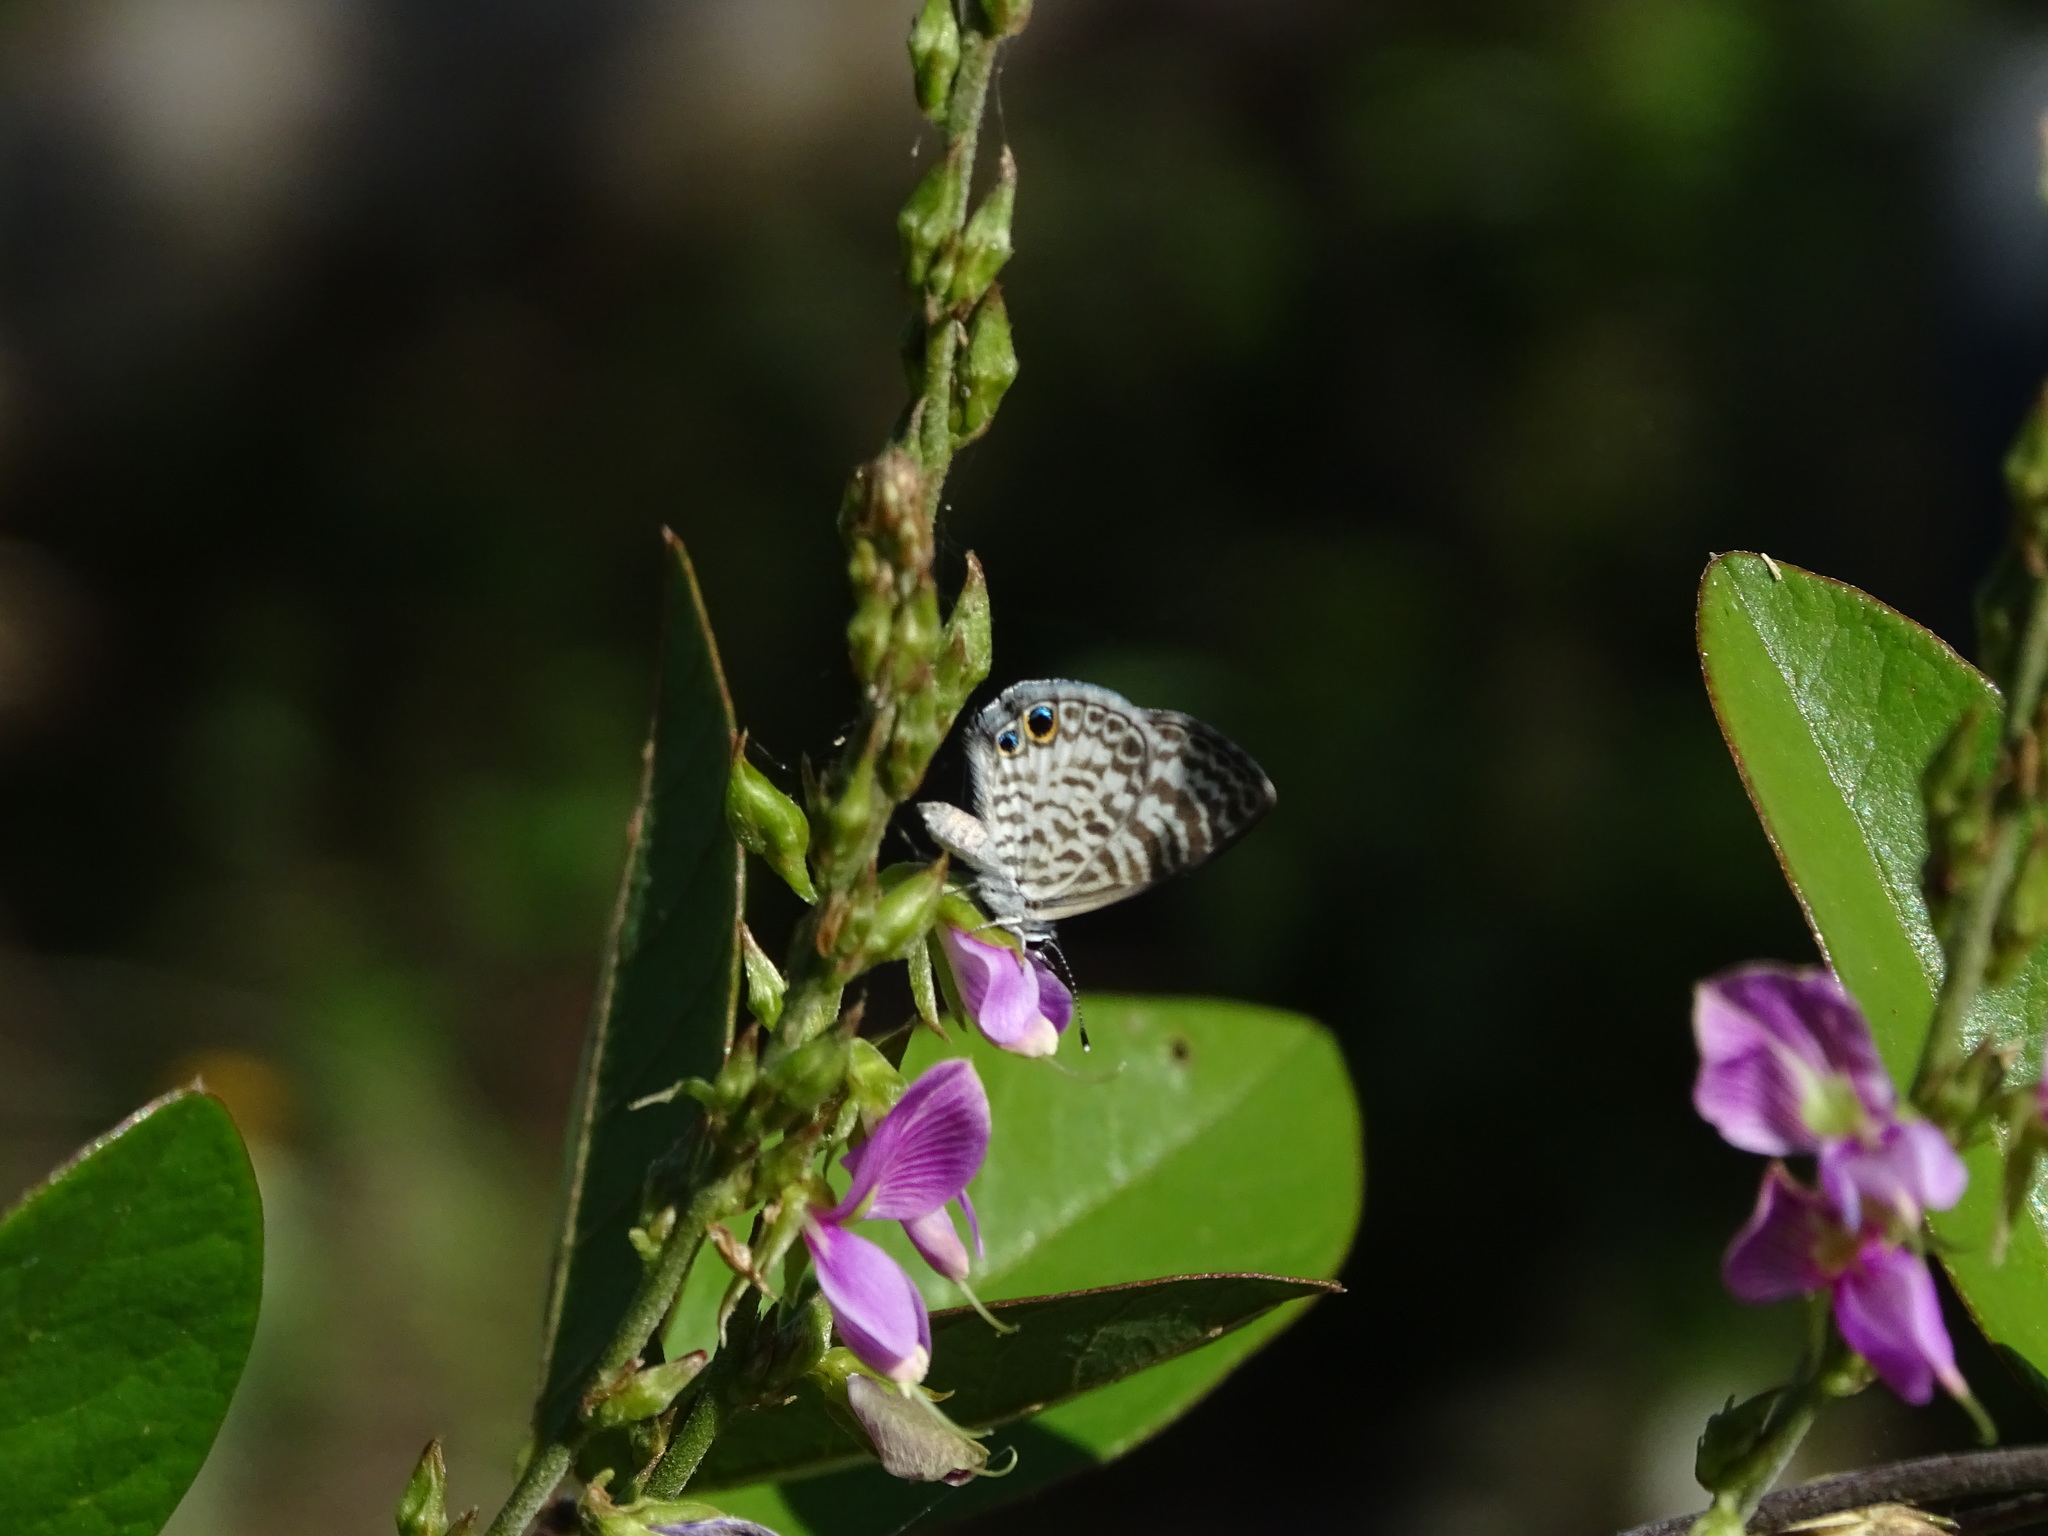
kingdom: Animalia
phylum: Arthropoda
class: Insecta
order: Lepidoptera
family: Lycaenidae
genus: Leptotes
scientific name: Leptotes cassius
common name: Cassius blue
